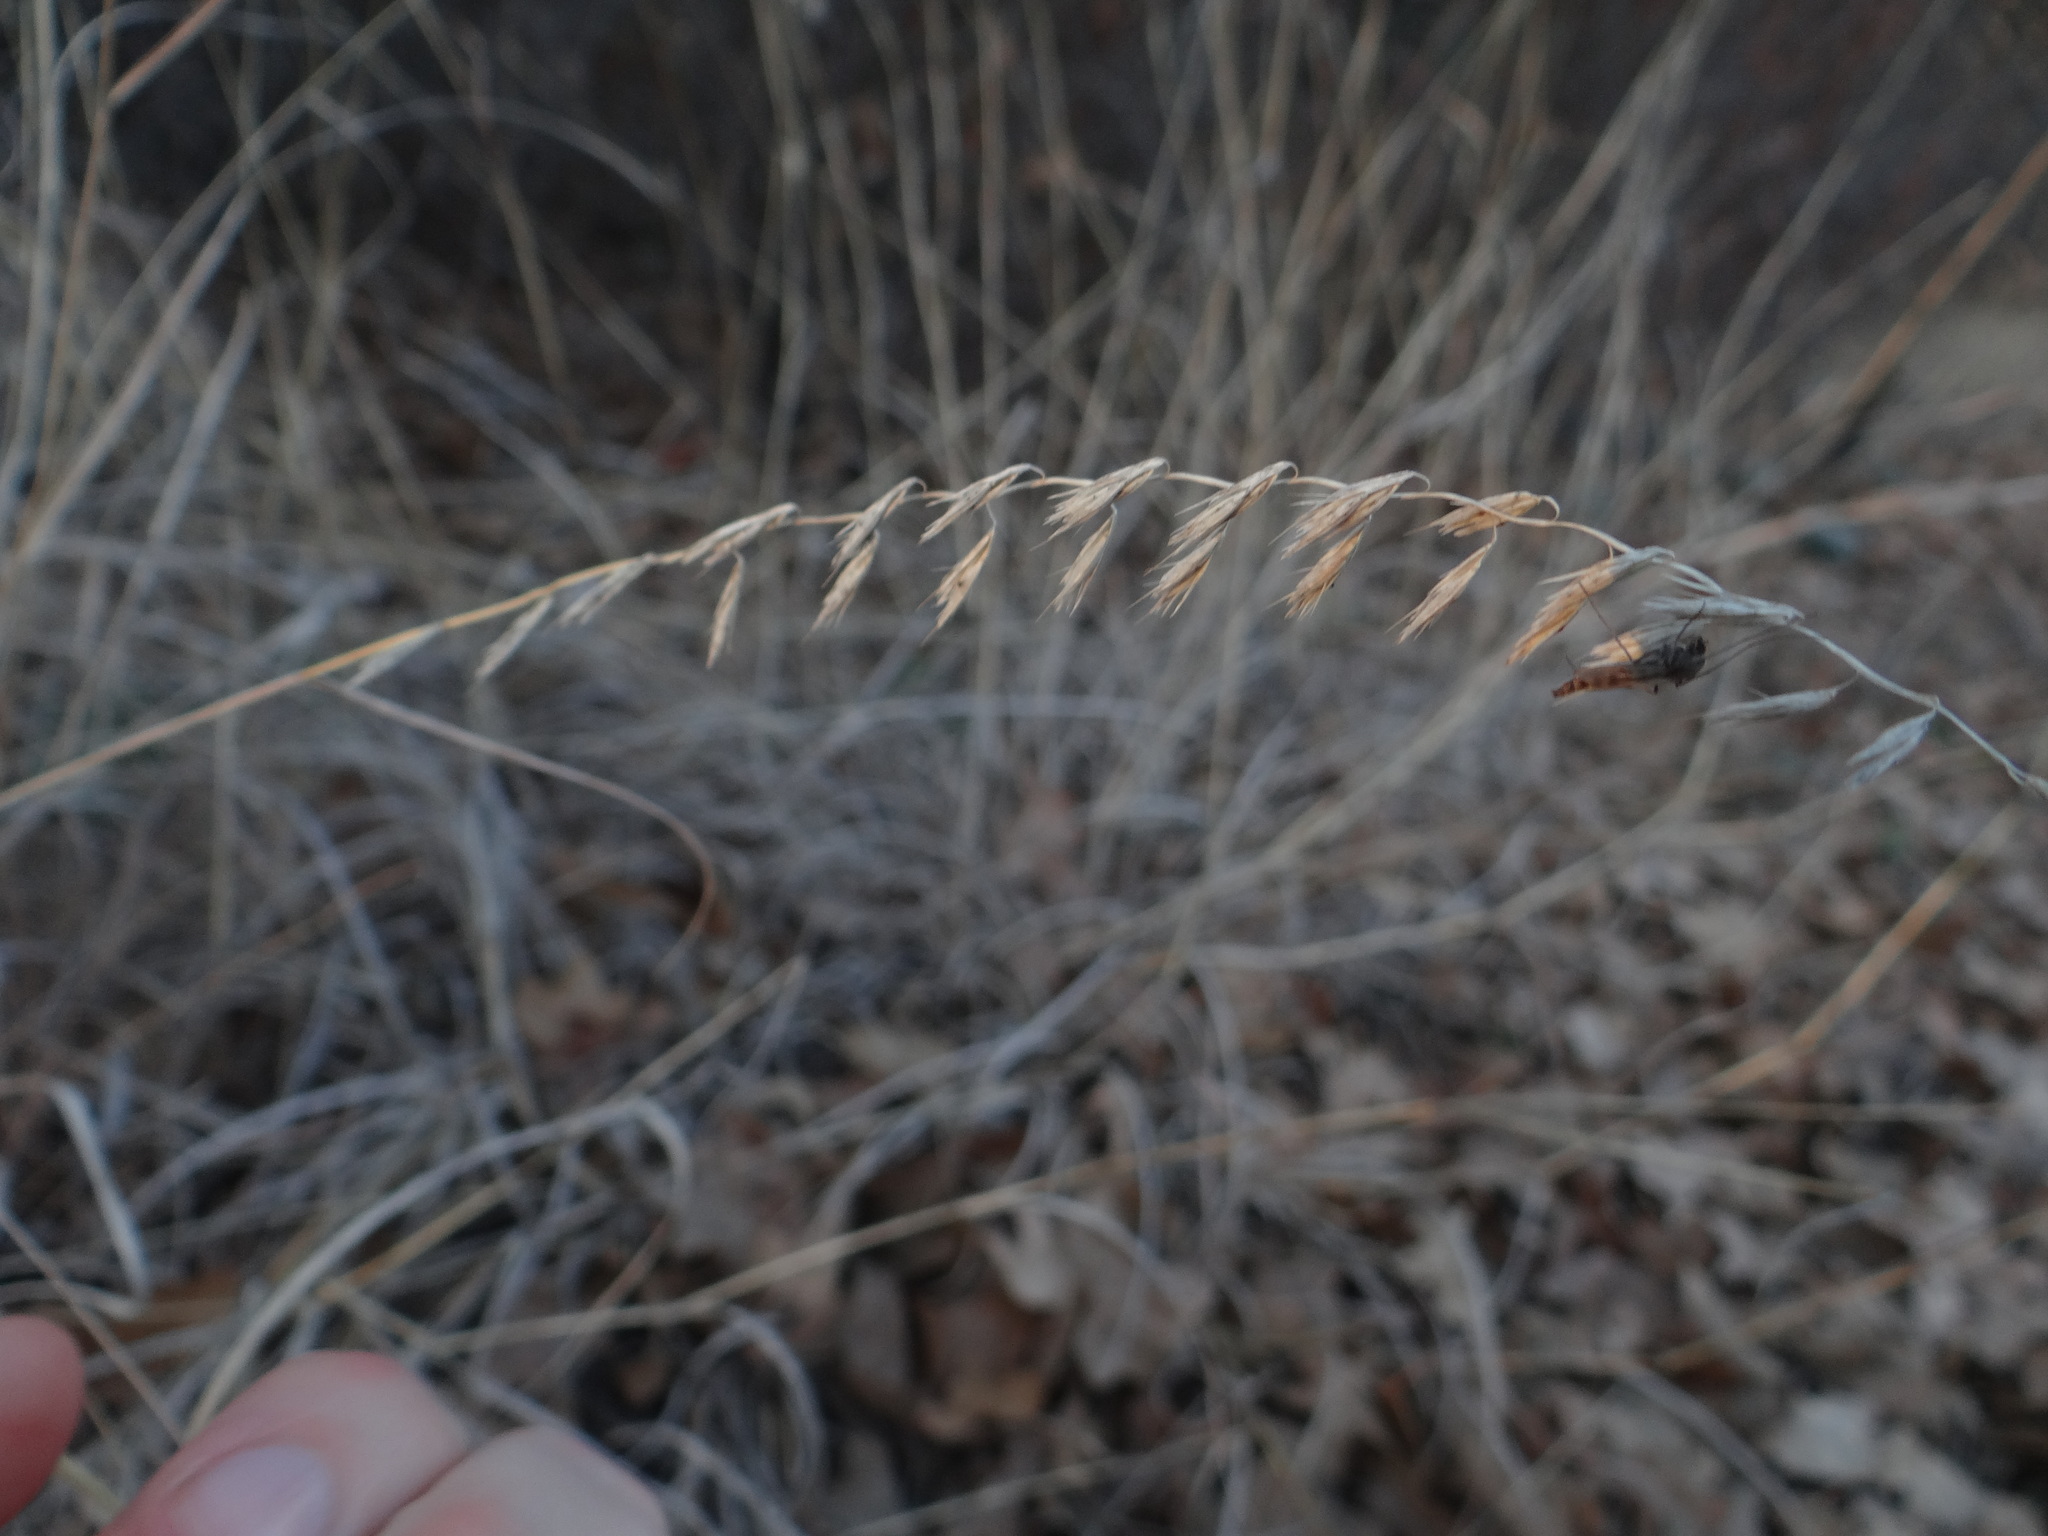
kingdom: Plantae
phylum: Tracheophyta
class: Liliopsida
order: Poales
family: Poaceae
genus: Bouteloua
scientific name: Bouteloua curtipendula
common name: Side-oats grama
